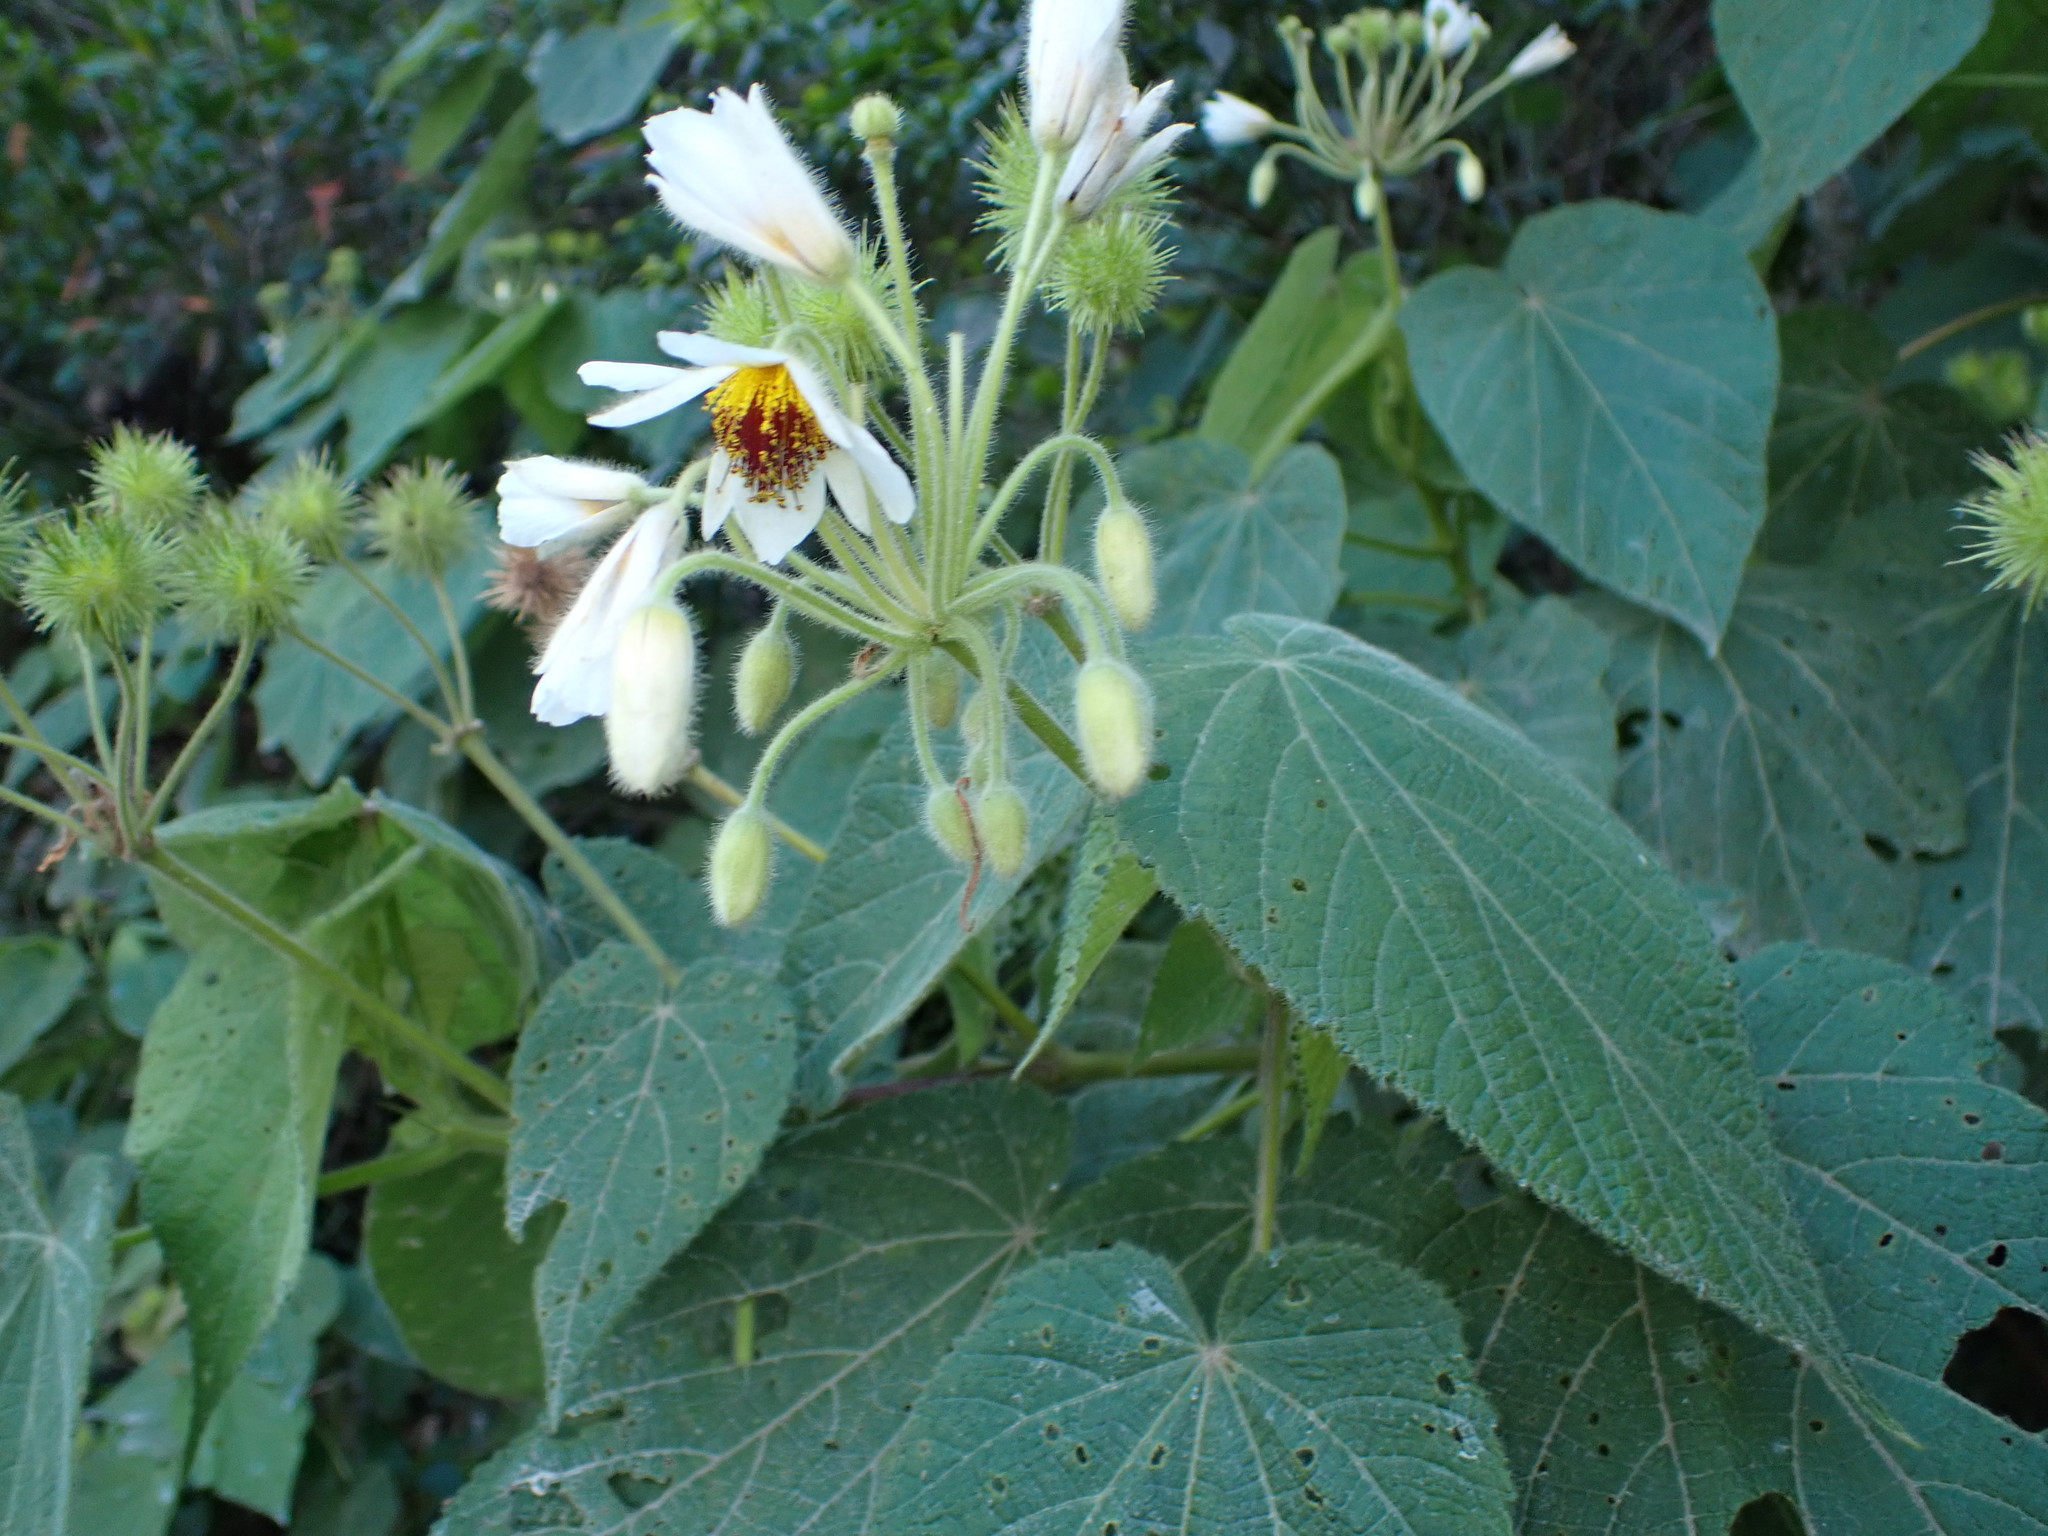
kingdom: Plantae
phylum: Tracheophyta
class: Magnoliopsida
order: Malvales
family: Malvaceae
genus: Sparrmannia
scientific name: Sparrmannia africana
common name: African-hemp
